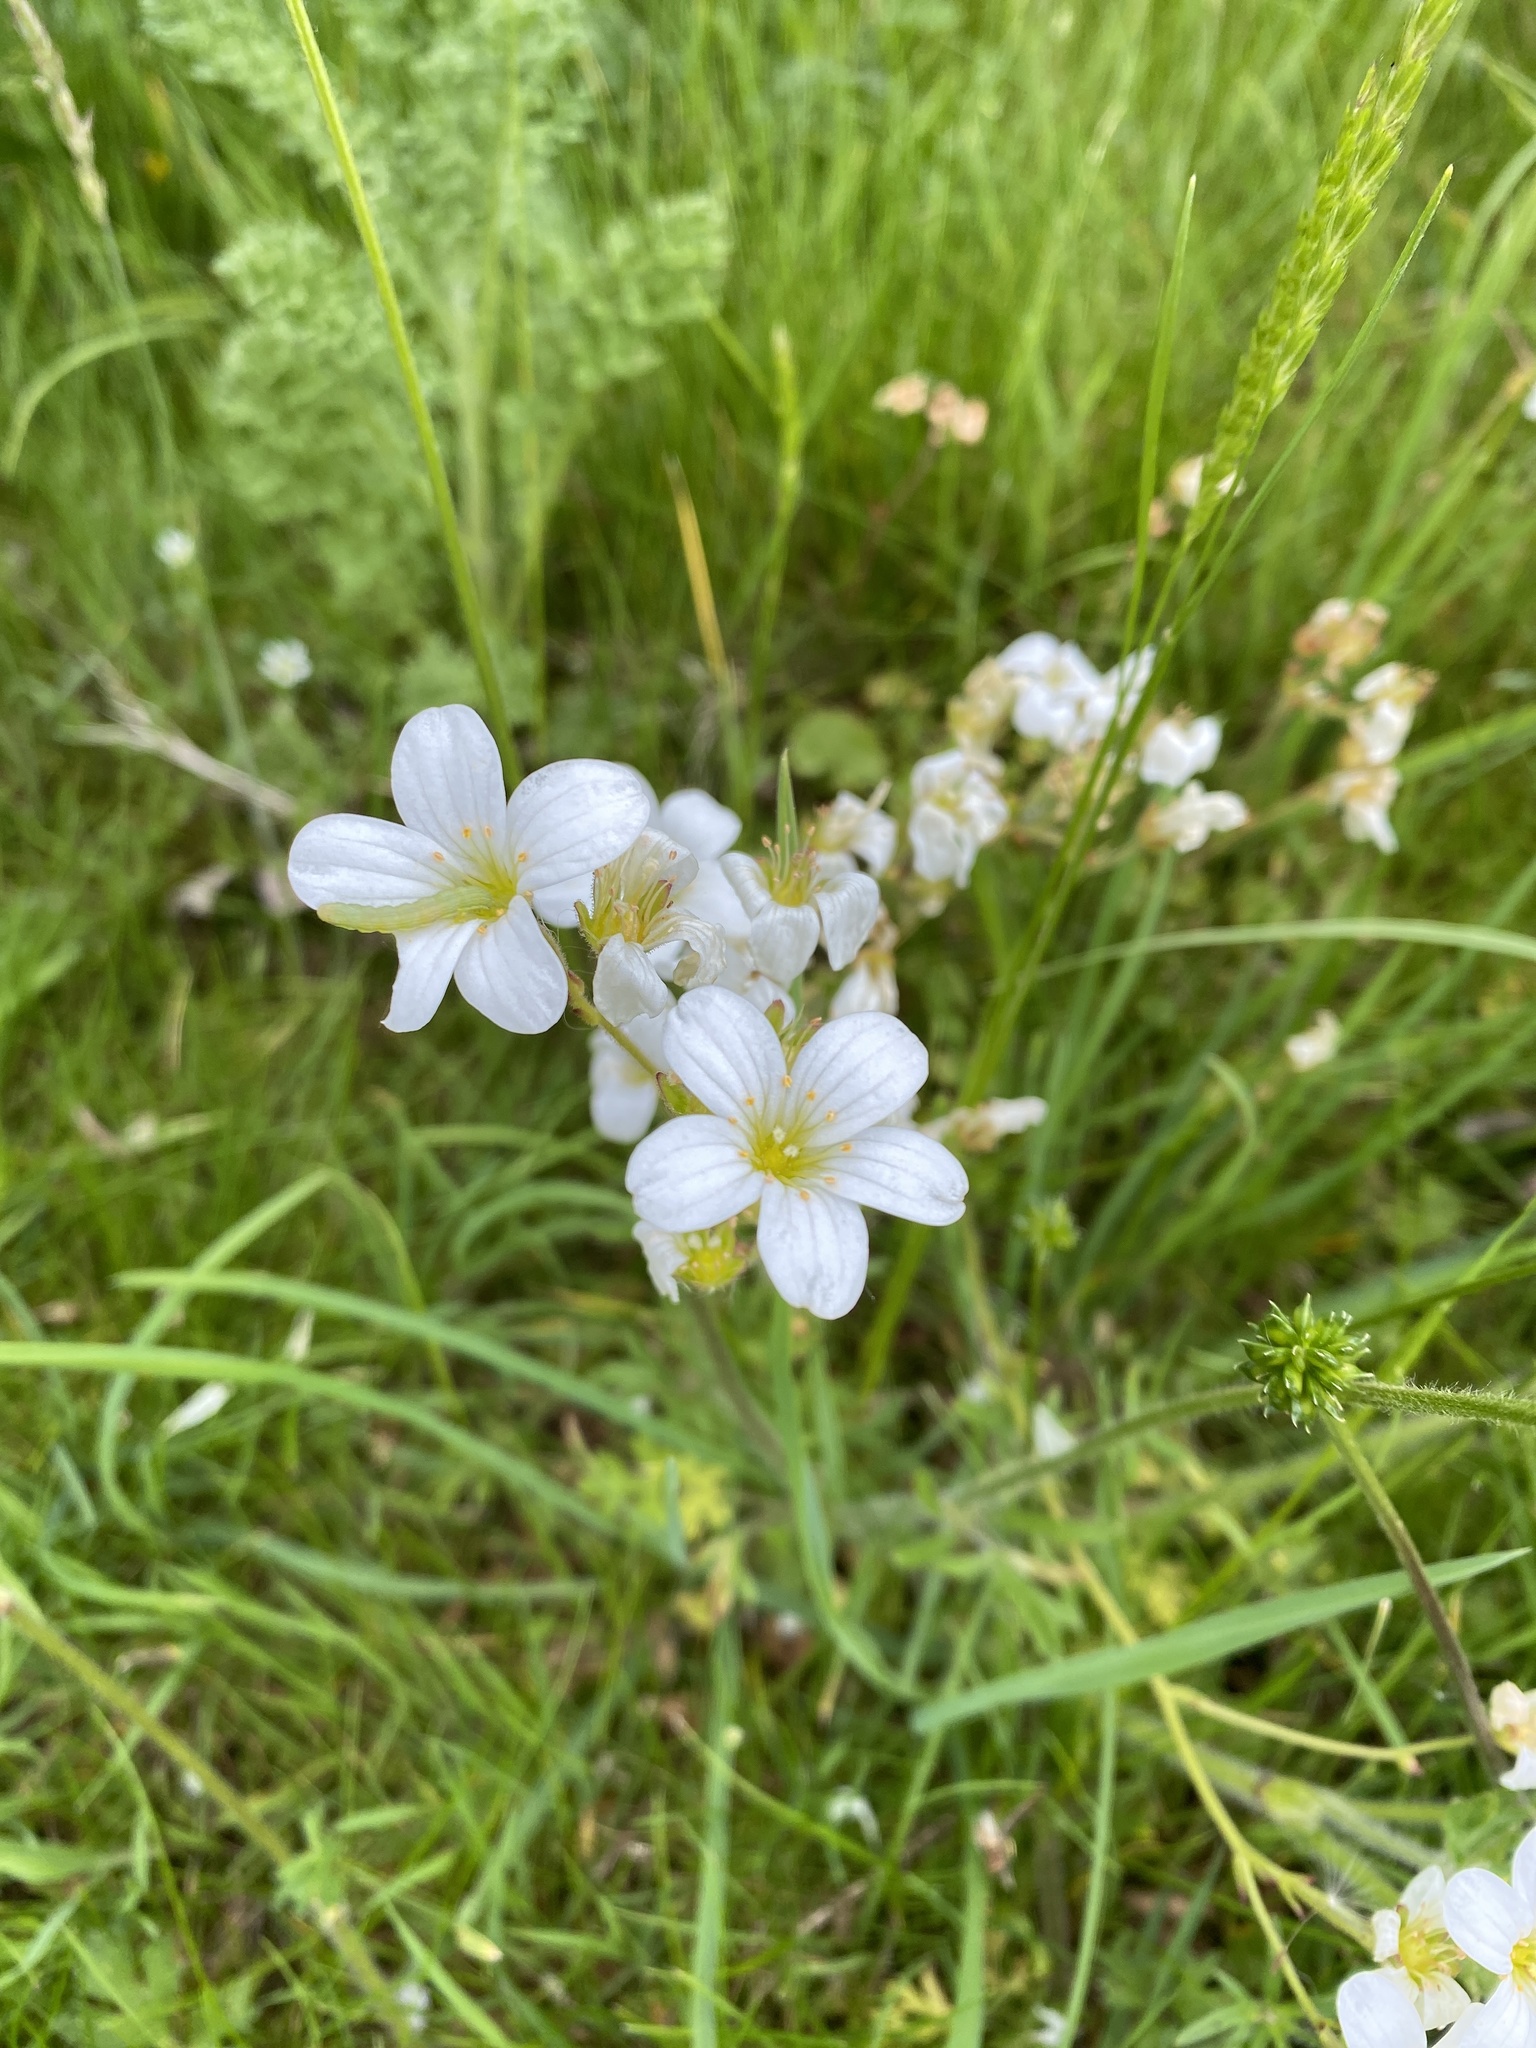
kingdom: Plantae
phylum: Tracheophyta
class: Magnoliopsida
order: Saxifragales
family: Saxifragaceae
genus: Saxifraga
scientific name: Saxifraga granulata
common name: Meadow saxifrage
